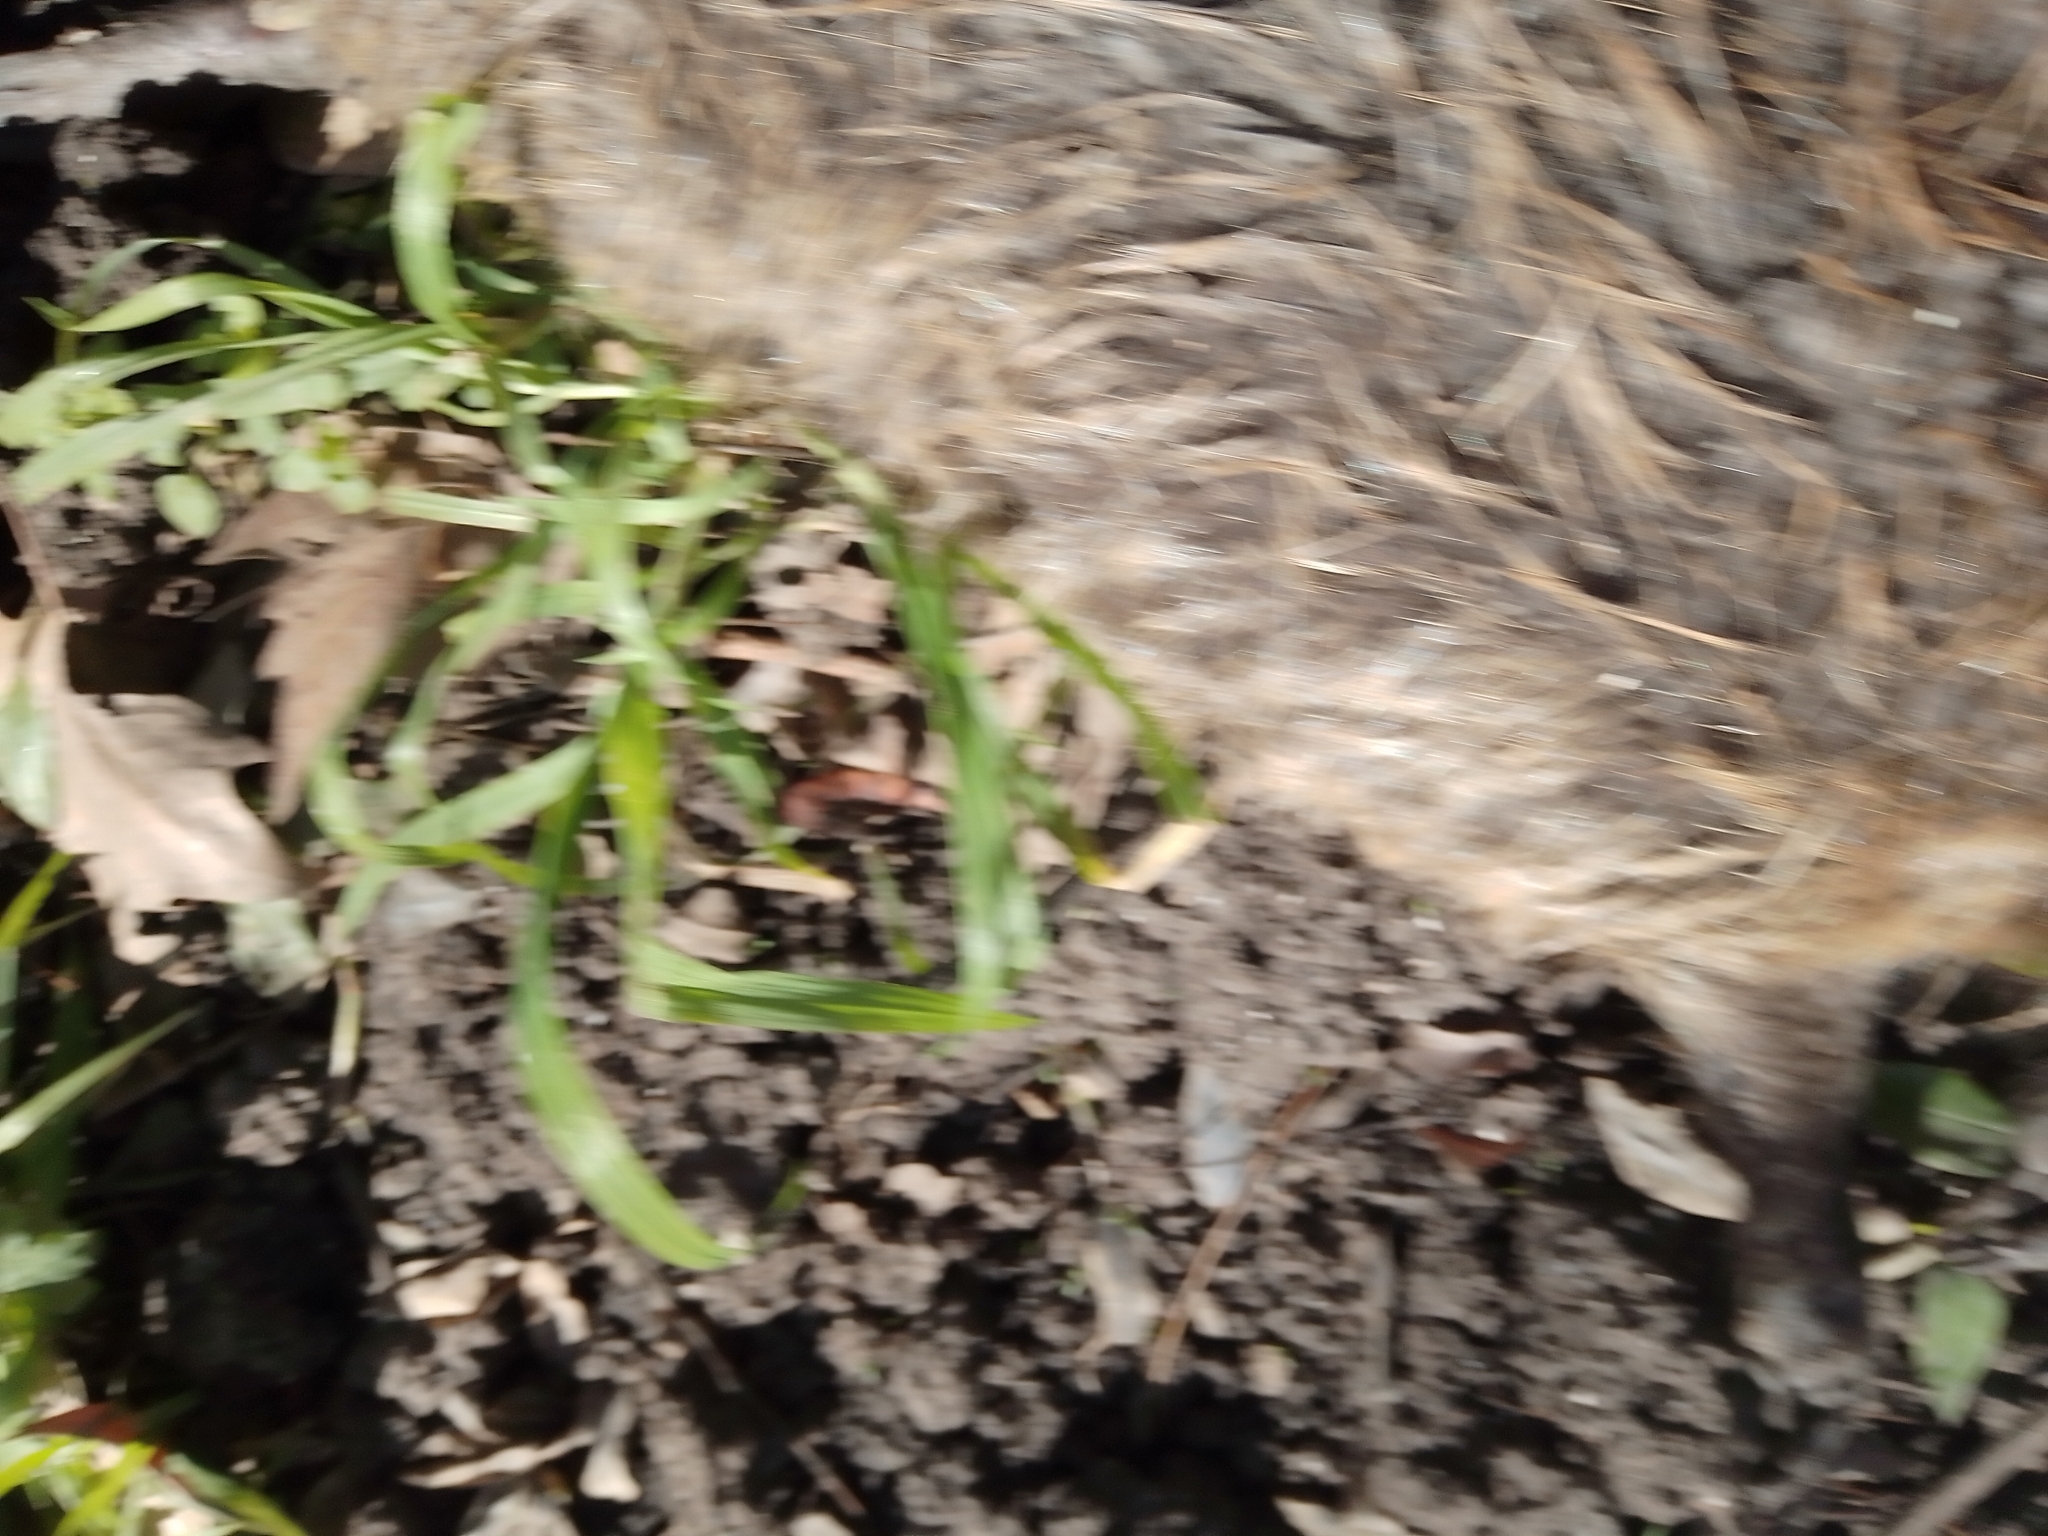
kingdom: Animalia
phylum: Chordata
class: Mammalia
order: Rodentia
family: Myocastoridae
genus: Myocastor
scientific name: Myocastor coypus
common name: Coypu
